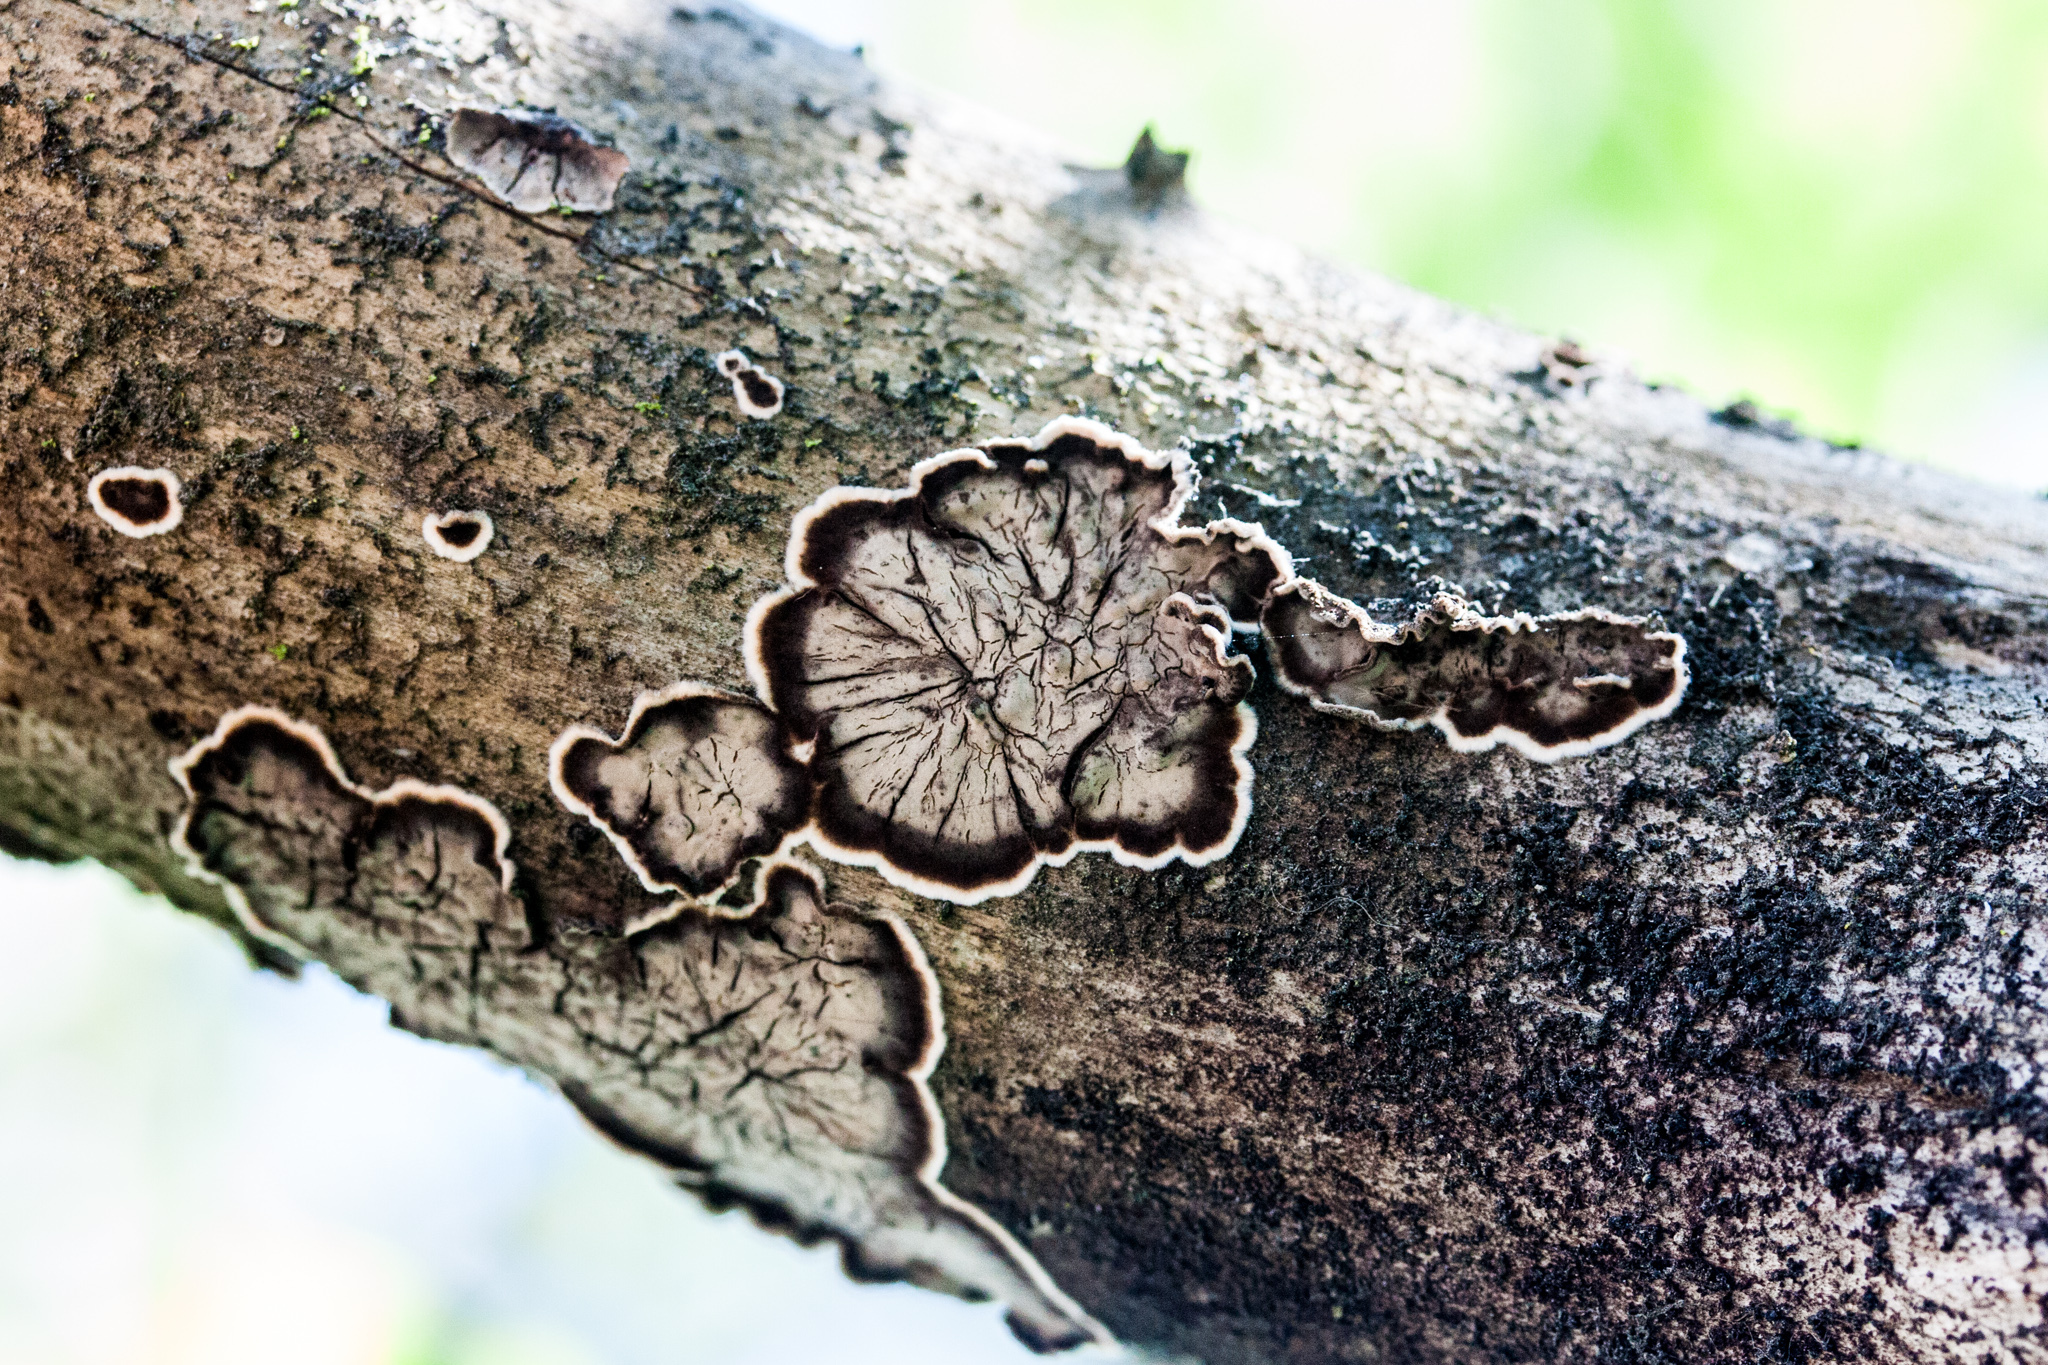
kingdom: Fungi
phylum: Basidiomycota
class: Agaricomycetes
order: Russulales
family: Peniophoraceae
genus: Peniophora
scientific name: Peniophora albobadia
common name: Giraffe spots
